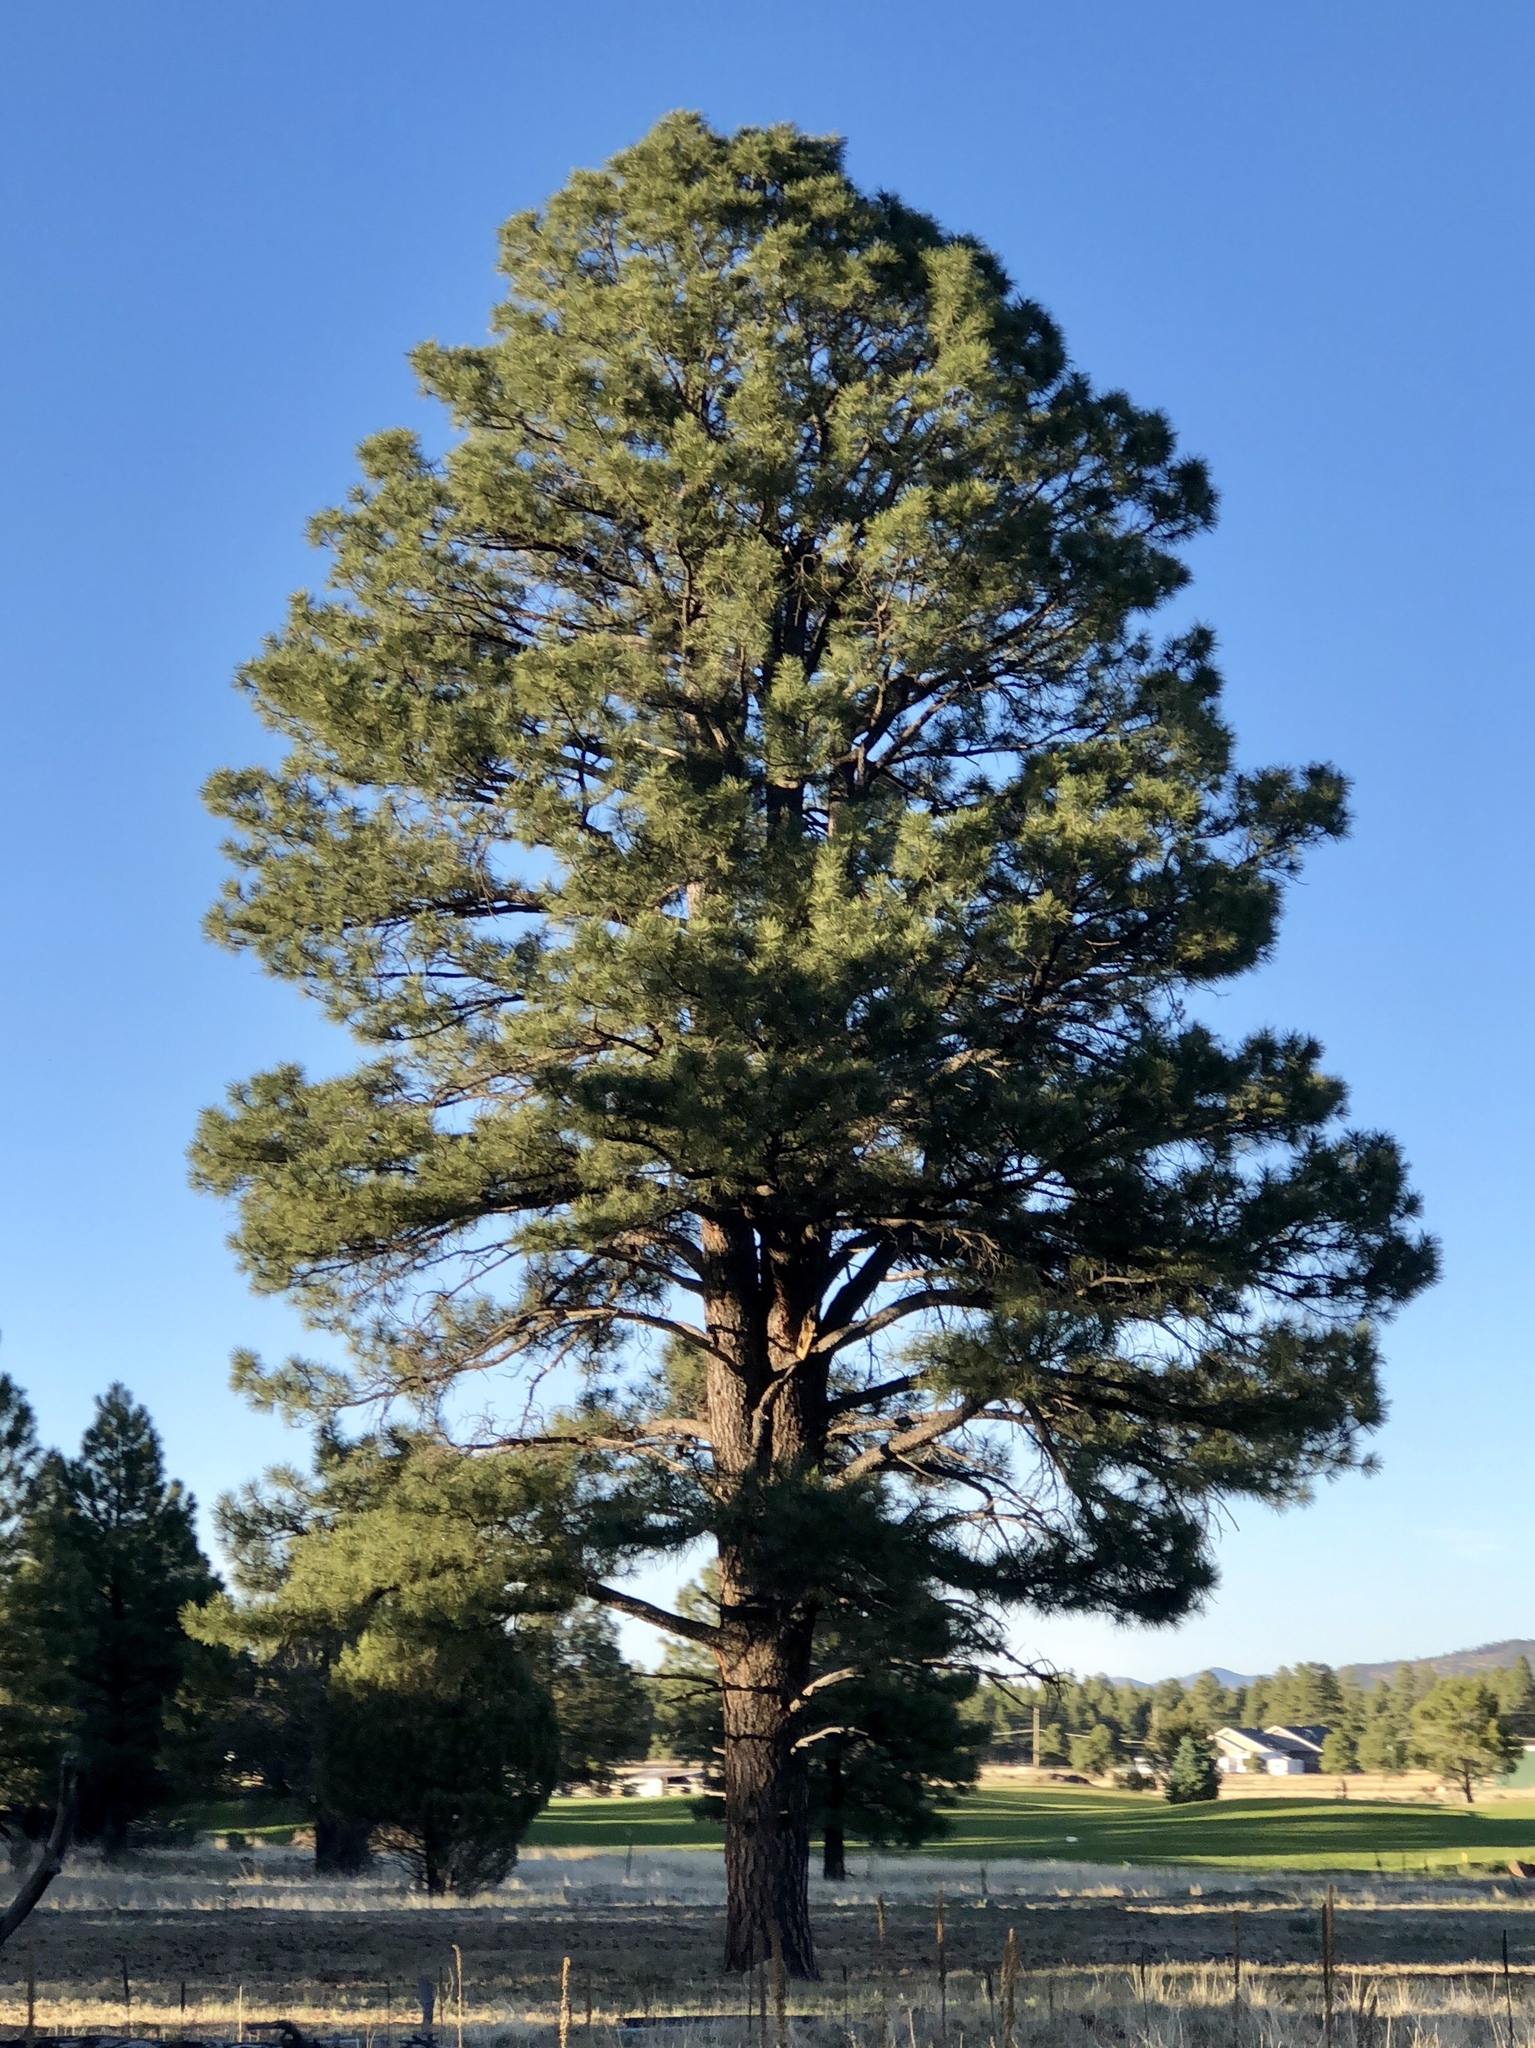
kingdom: Plantae
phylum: Tracheophyta
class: Pinopsida
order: Pinales
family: Pinaceae
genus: Pinus
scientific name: Pinus ponderosa
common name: Western yellow-pine
